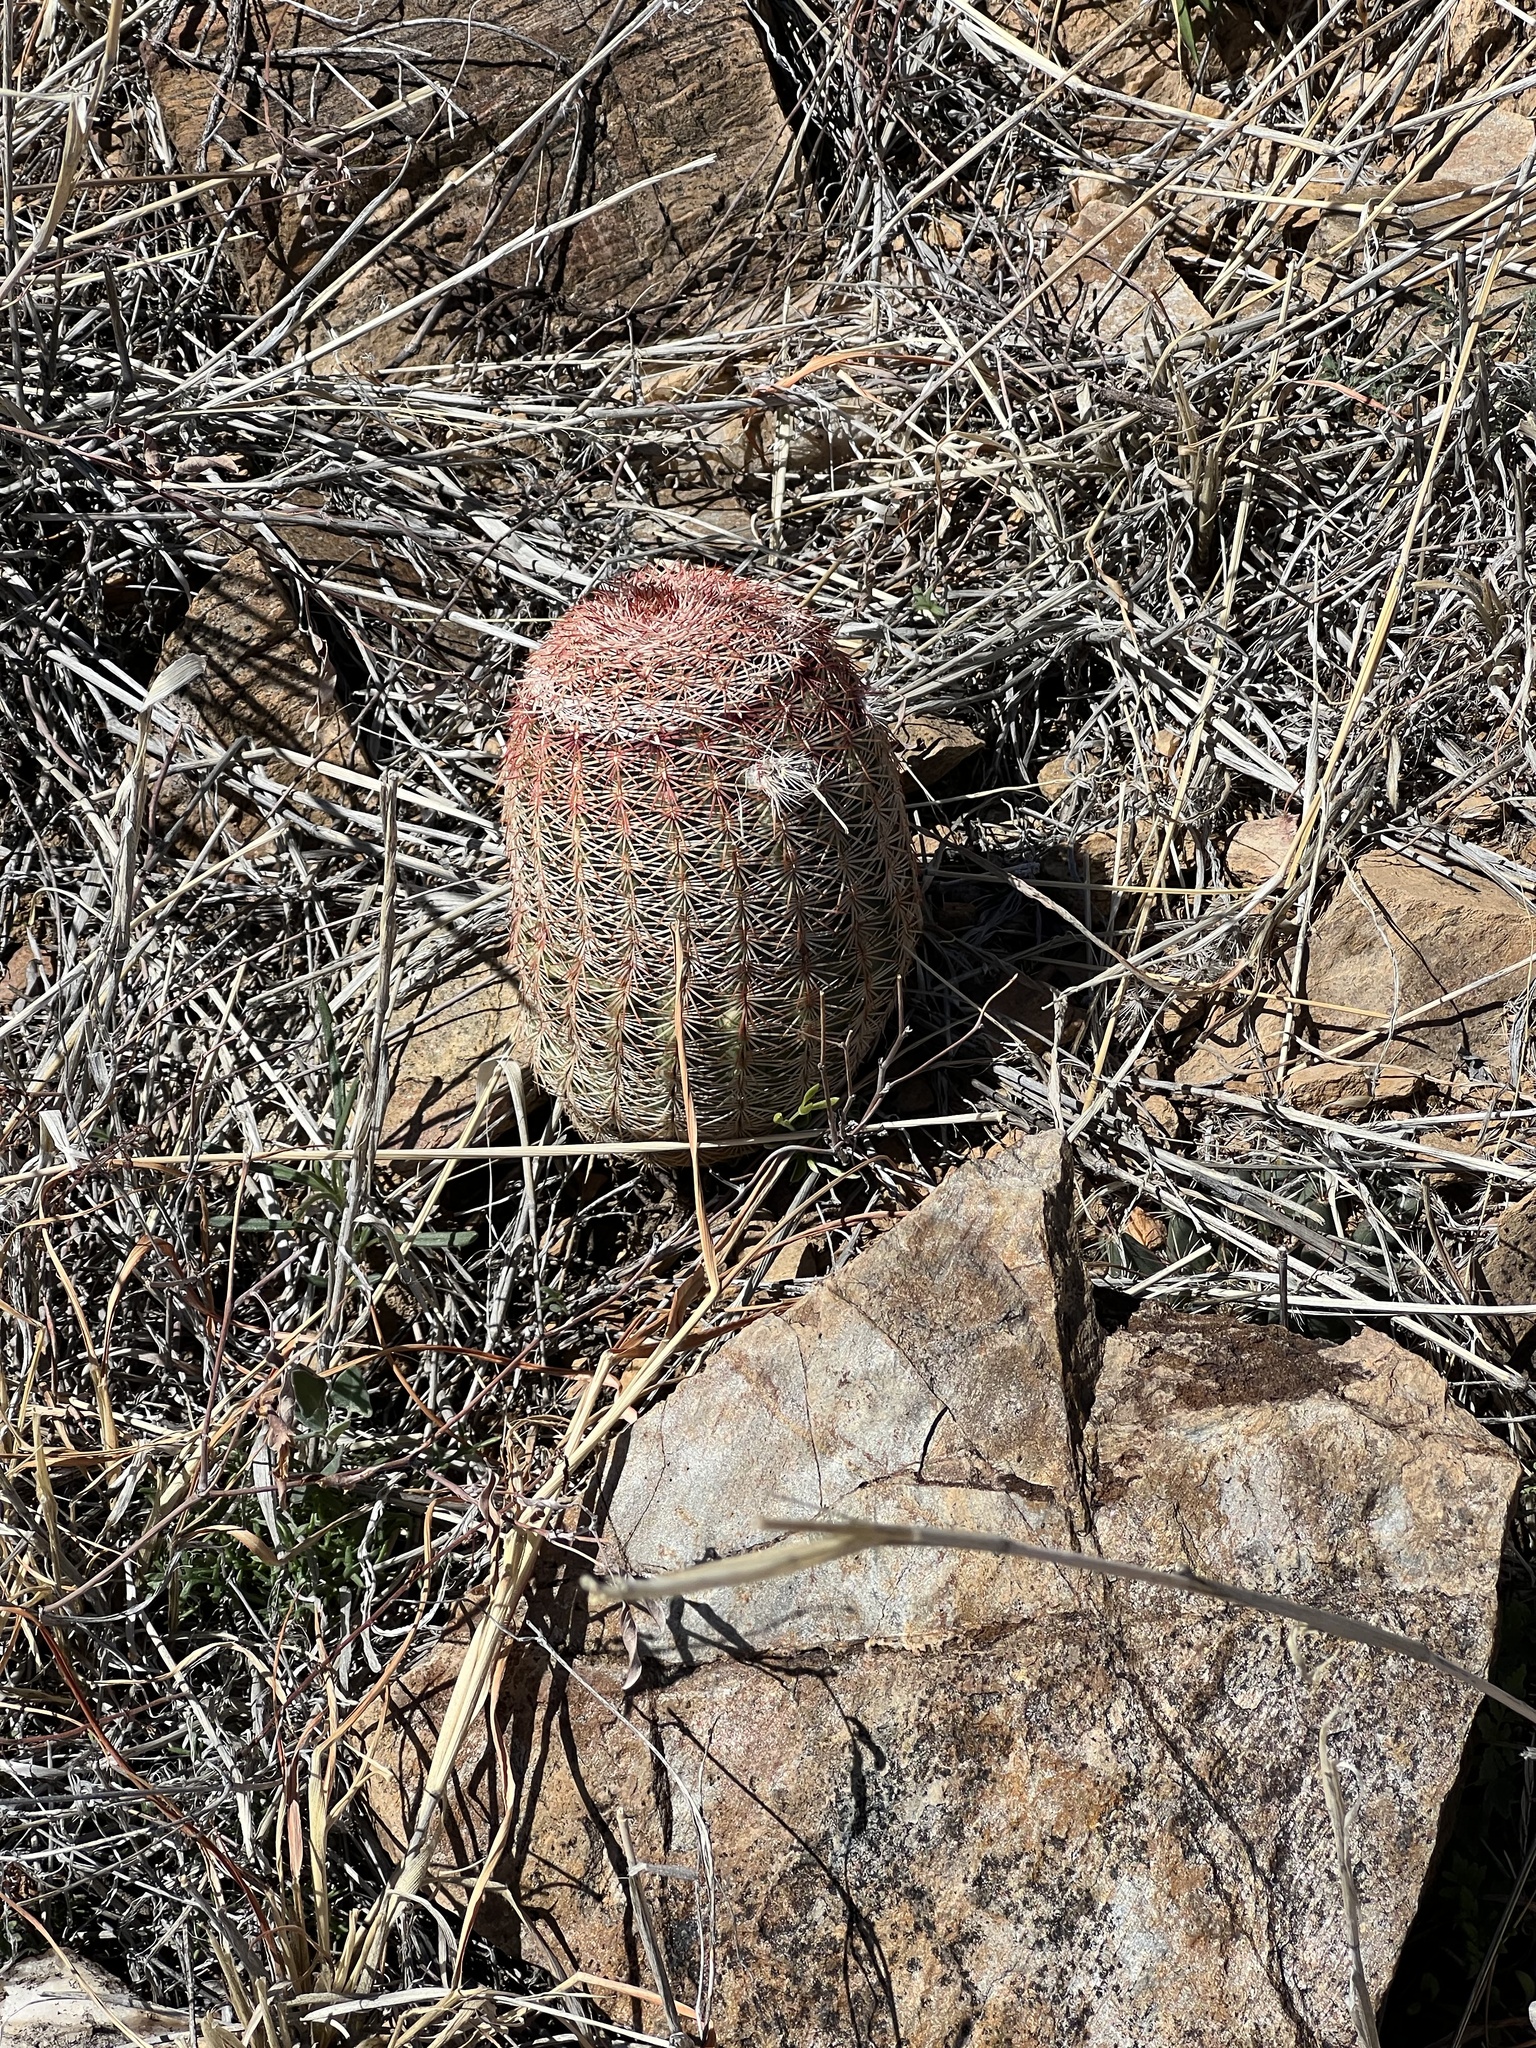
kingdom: Plantae
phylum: Tracheophyta
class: Magnoliopsida
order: Caryophyllales
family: Cactaceae
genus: Echinocereus
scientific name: Echinocereus rigidissimus
